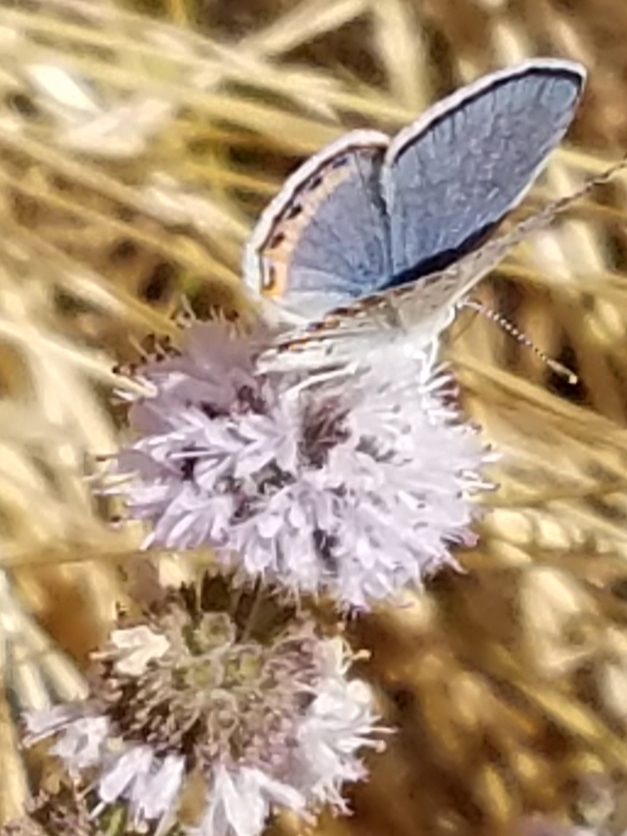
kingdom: Animalia
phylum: Arthropoda
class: Insecta
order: Lepidoptera
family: Lycaenidae
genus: Icaricia
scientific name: Icaricia acmon
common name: Acmon blue
